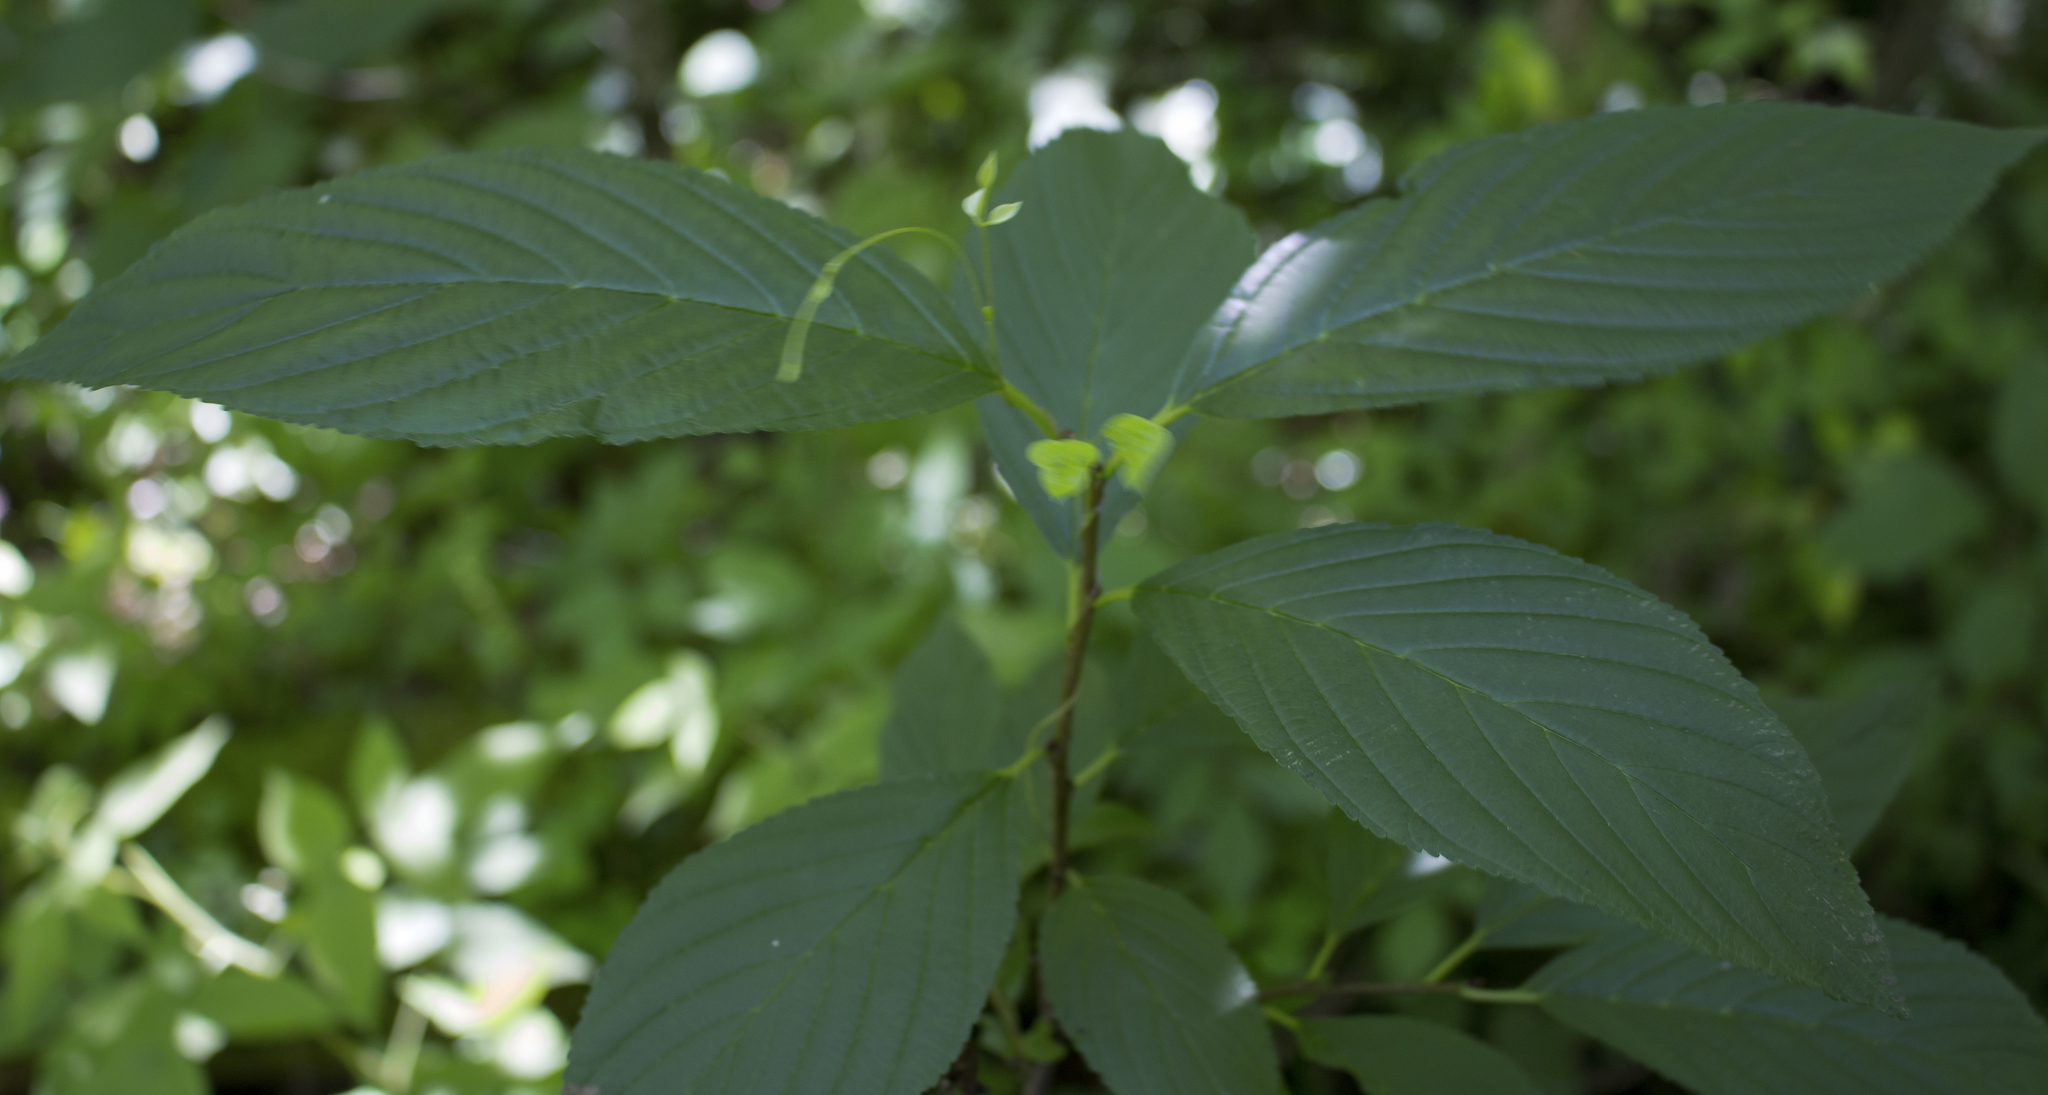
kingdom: Plantae
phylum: Tracheophyta
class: Magnoliopsida
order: Rosales
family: Rhamnaceae
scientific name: Rhamnaceae
